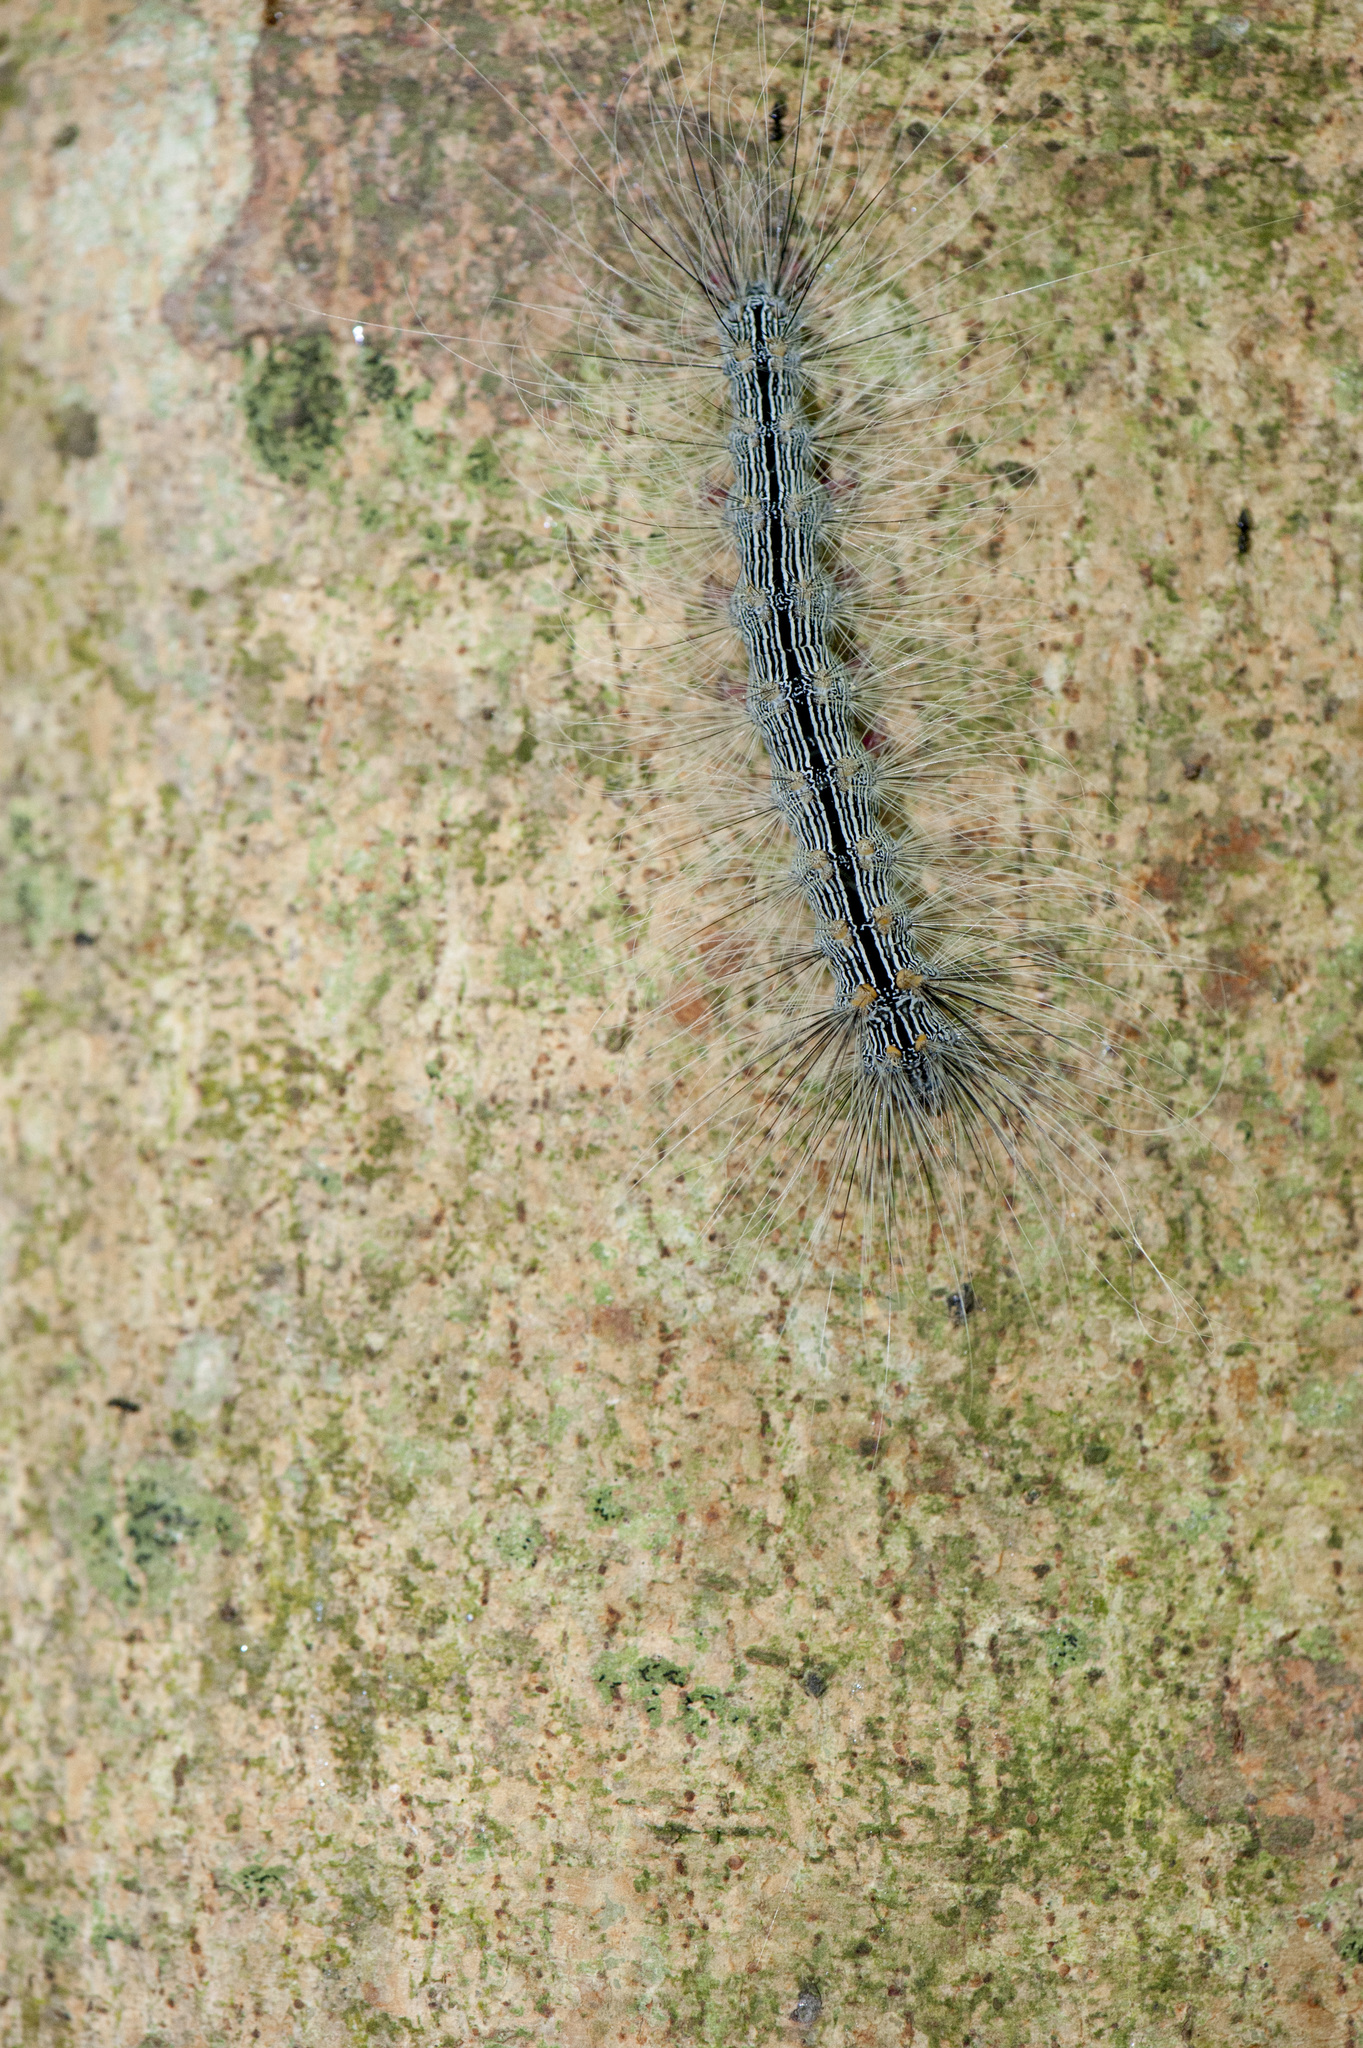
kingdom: Animalia
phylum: Arthropoda
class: Insecta
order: Lepidoptera
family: Erebidae
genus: Chrysaeglia
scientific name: Chrysaeglia magnifica
